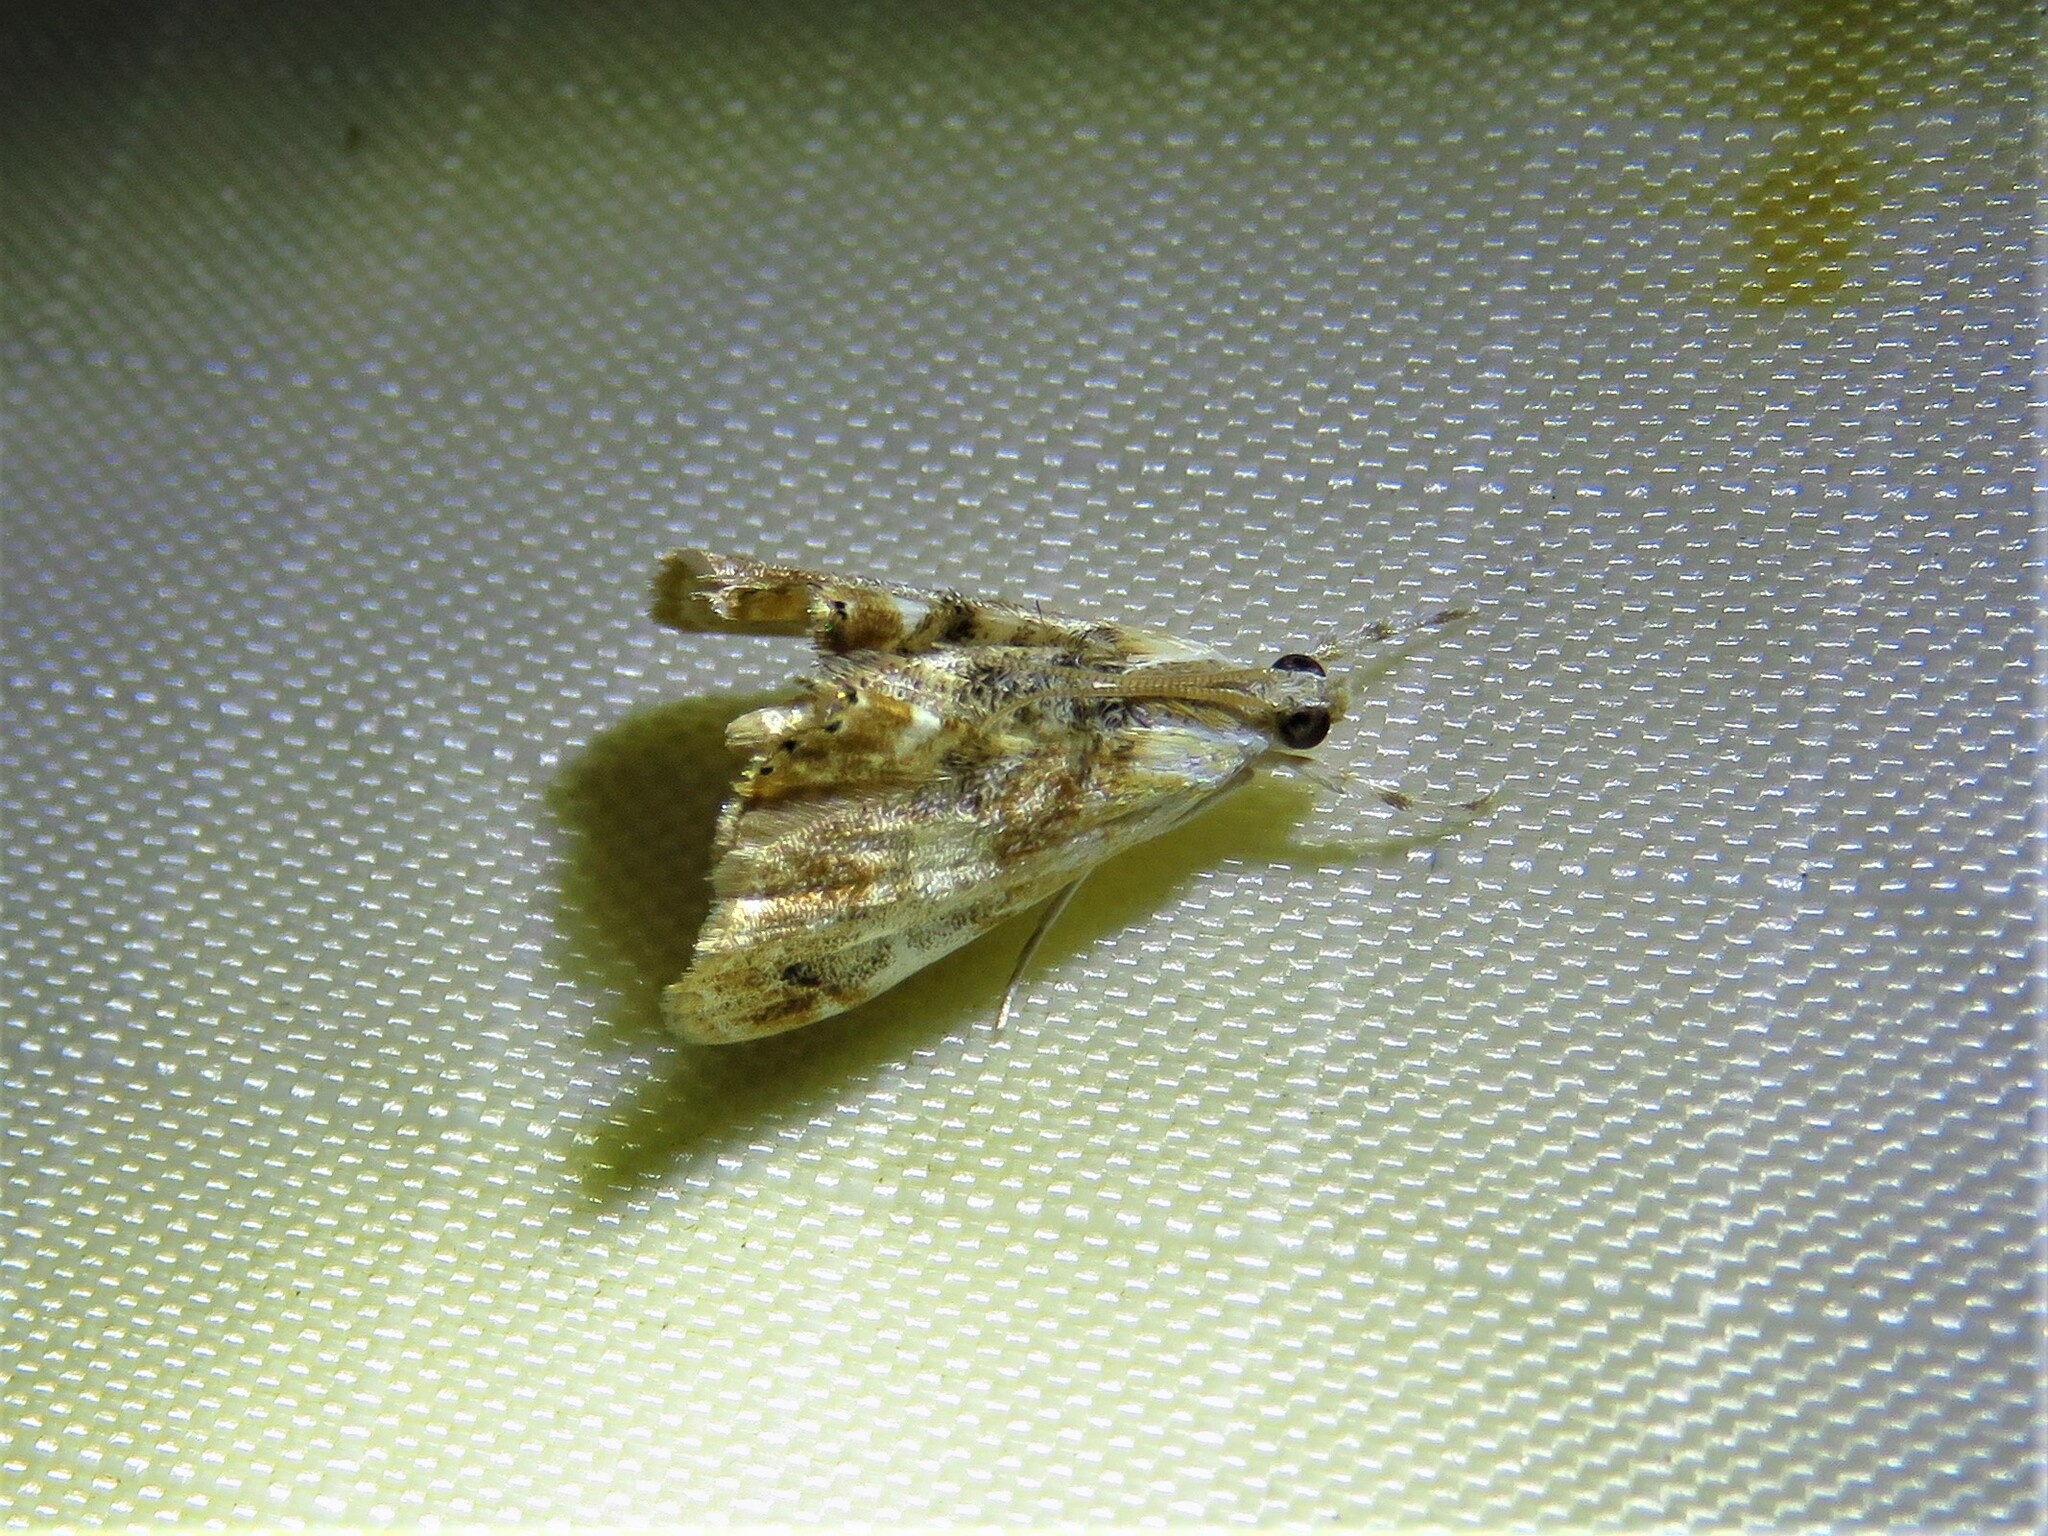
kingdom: Animalia
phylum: Arthropoda
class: Insecta
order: Lepidoptera
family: Crambidae
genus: Dicymolomia
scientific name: Dicymolomia julianalis
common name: Julia's dicymolomia moth
